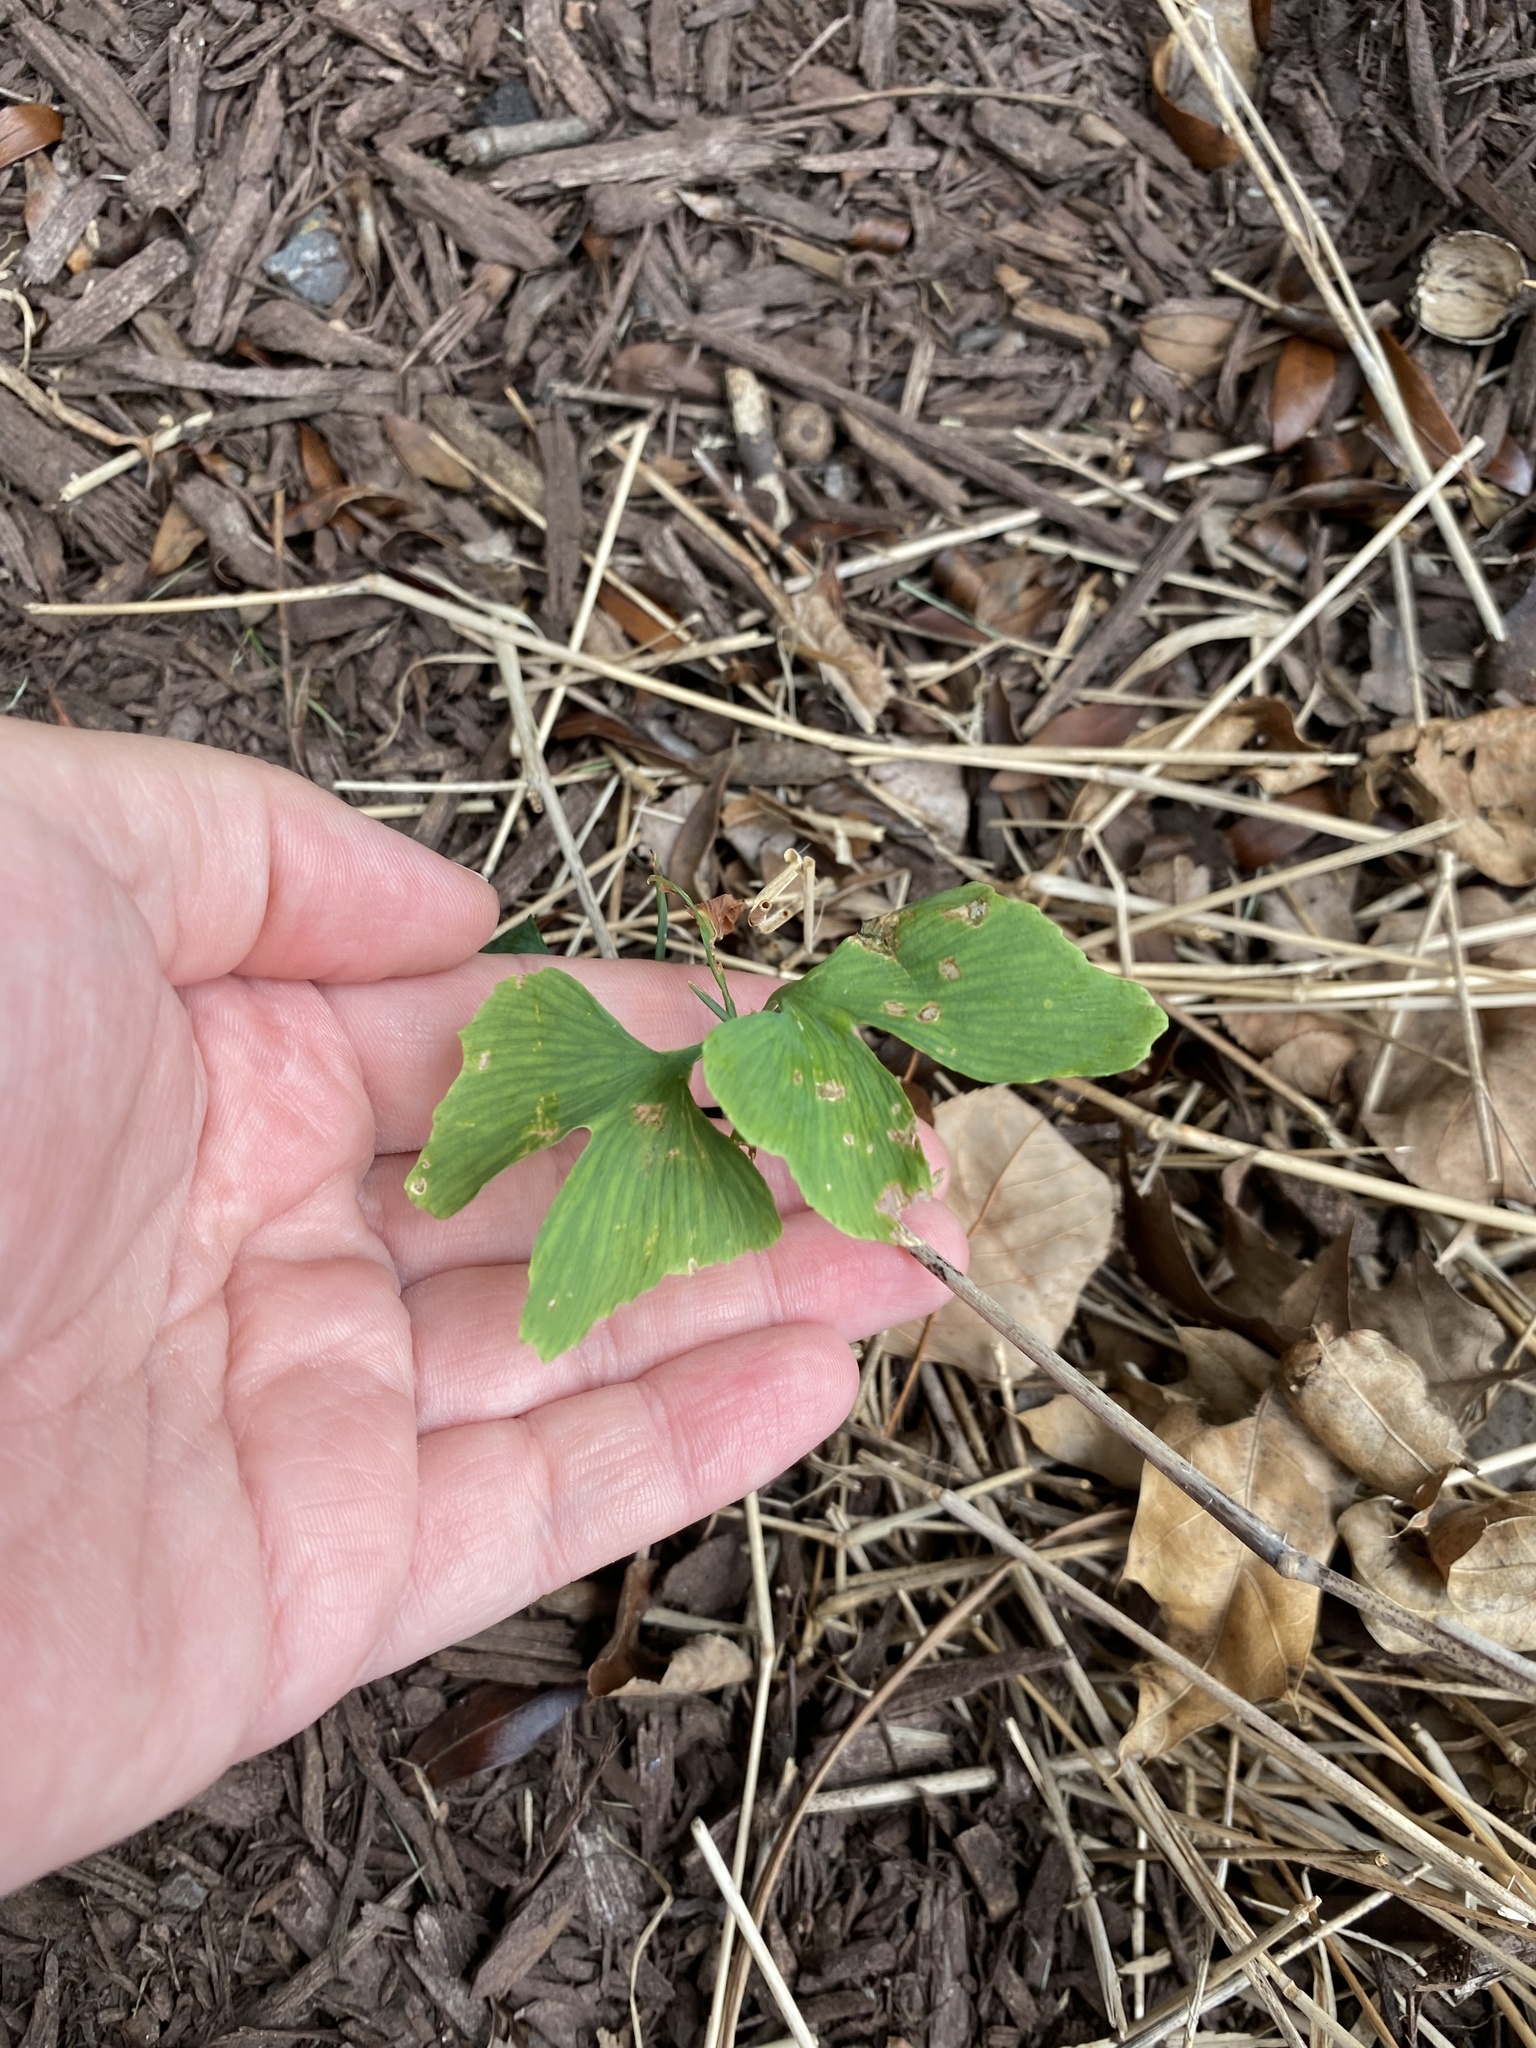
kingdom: Plantae
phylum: Tracheophyta
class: Ginkgoopsida
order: Ginkgoales
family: Ginkgoaceae
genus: Ginkgo
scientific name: Ginkgo biloba
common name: Ginkgo
